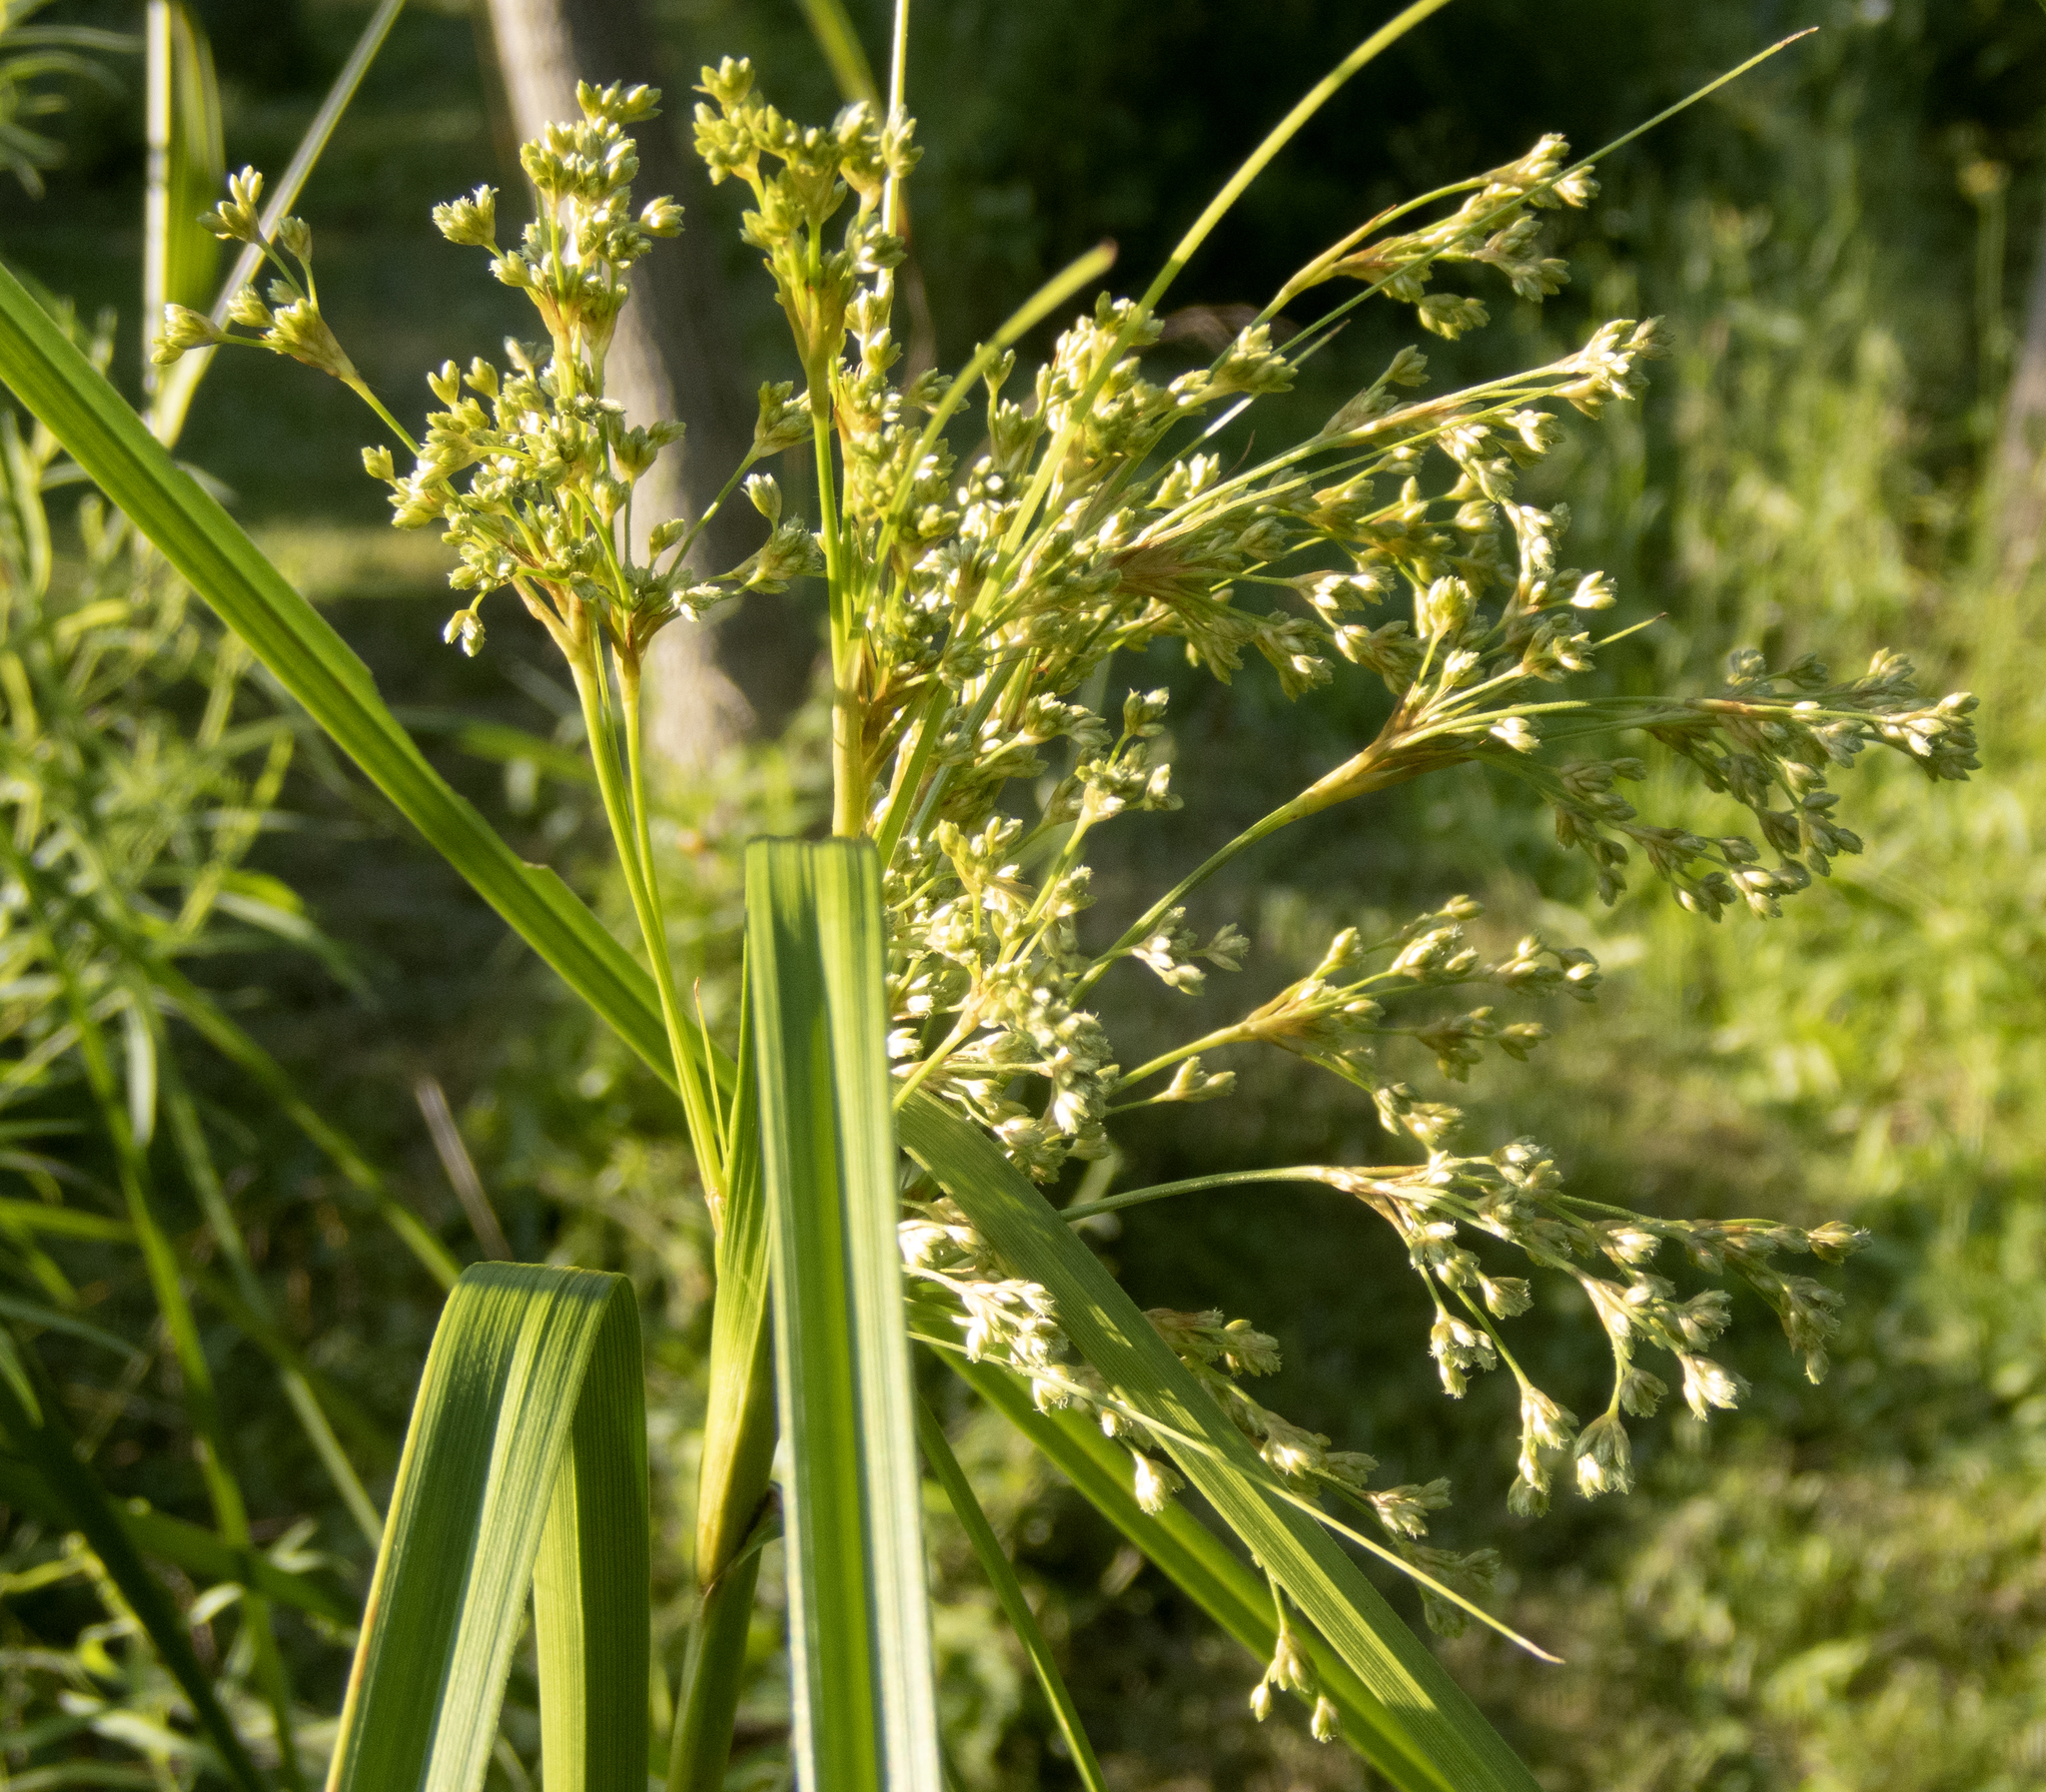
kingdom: Plantae
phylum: Tracheophyta
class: Liliopsida
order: Poales
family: Cyperaceae
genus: Scirpus
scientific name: Scirpus cyperinus
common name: Black-sheathed bulrush
